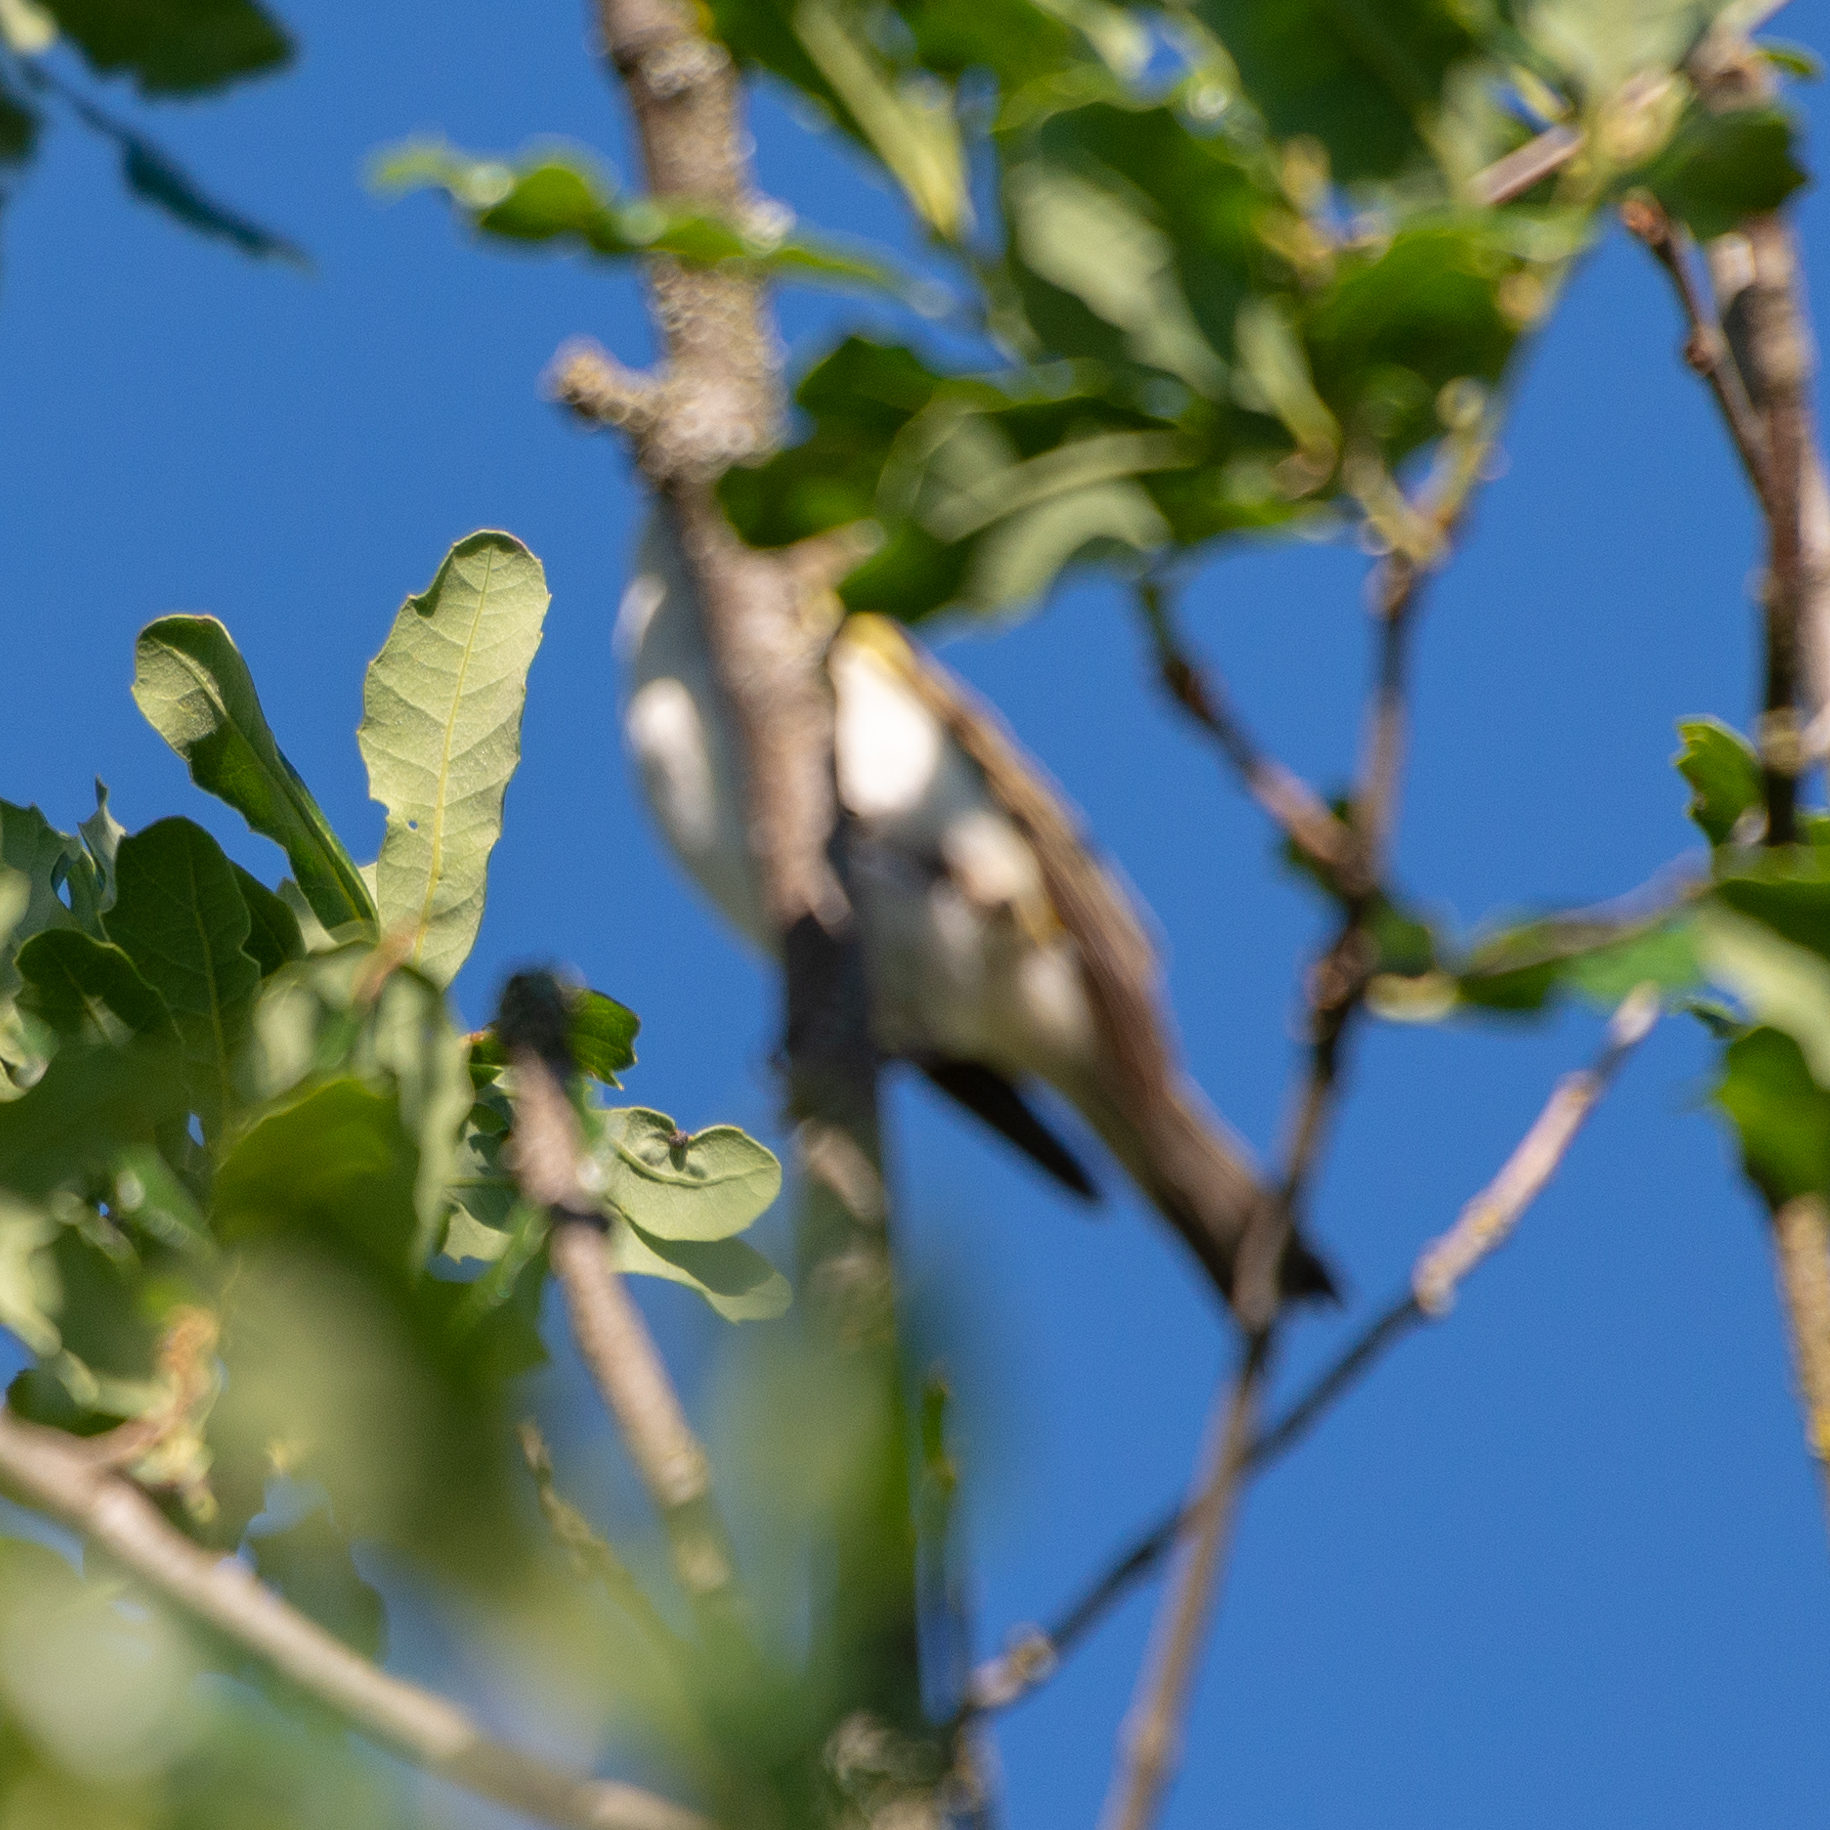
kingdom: Animalia
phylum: Chordata
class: Aves
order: Passeriformes
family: Phylloscopidae
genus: Phylloscopus
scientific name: Phylloscopus bonelli
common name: Western bonelli's warbler
